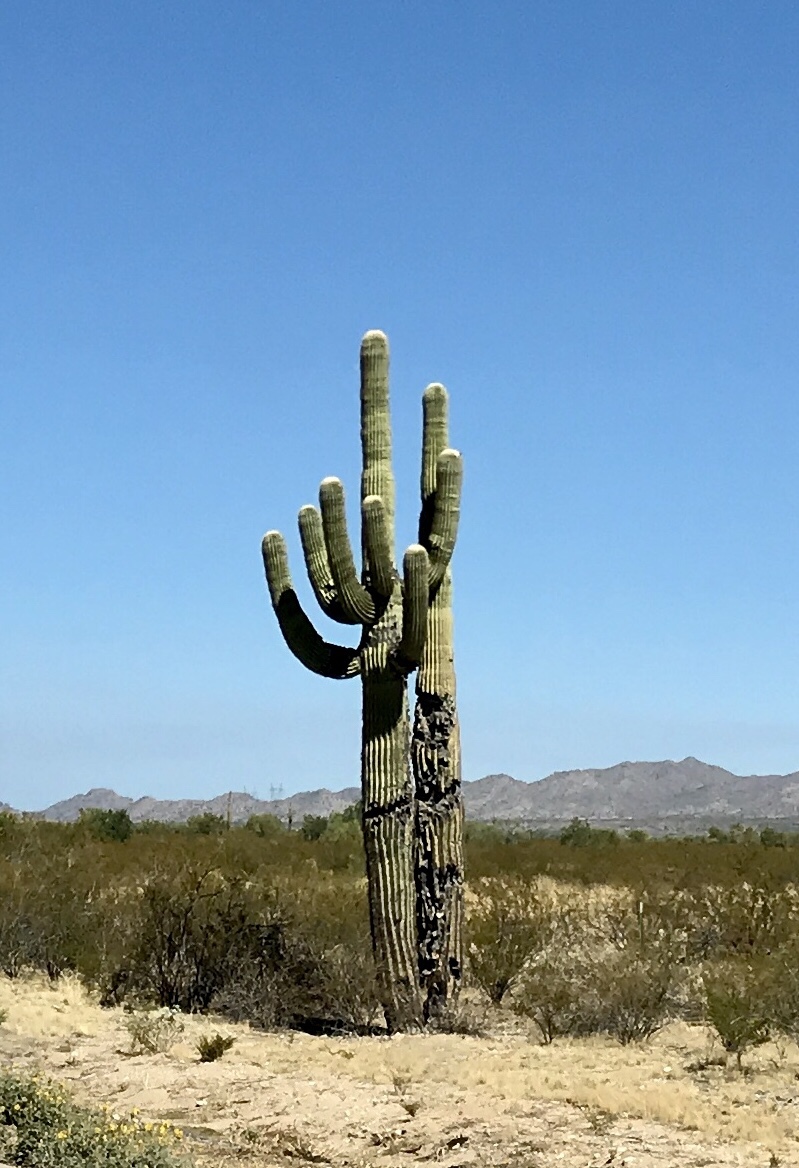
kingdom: Plantae
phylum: Tracheophyta
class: Magnoliopsida
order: Caryophyllales
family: Cactaceae
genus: Carnegiea
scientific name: Carnegiea gigantea
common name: Saguaro
